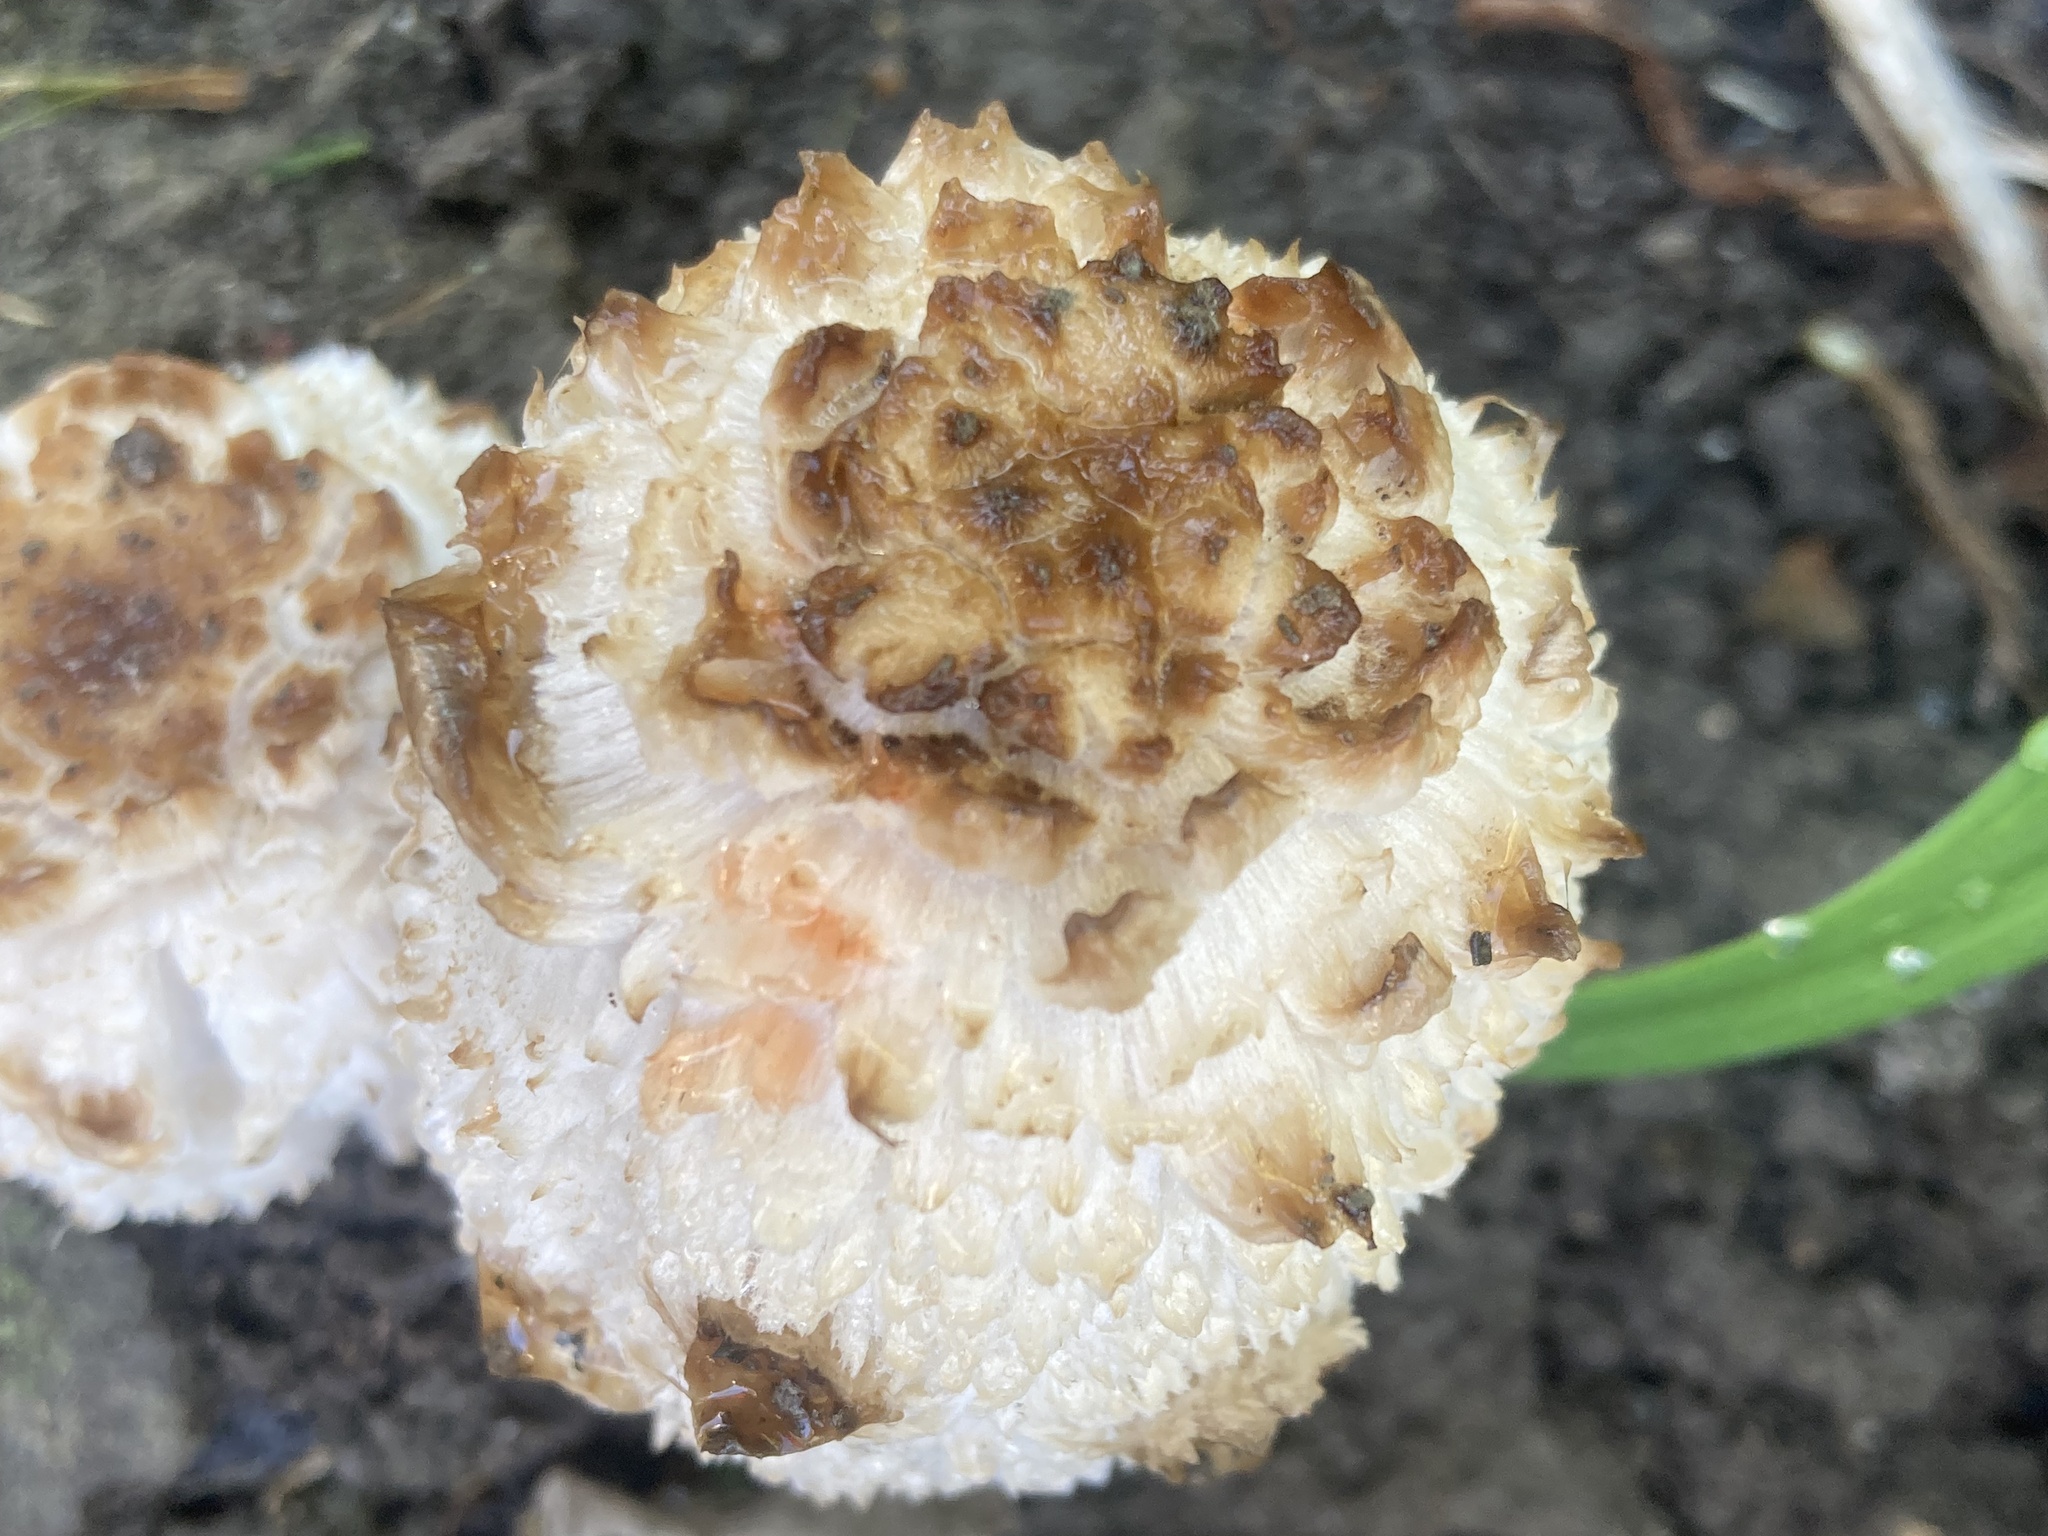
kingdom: Fungi
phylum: Basidiomycota
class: Agaricomycetes
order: Agaricales
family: Agaricaceae
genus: Coprinus
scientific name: Coprinus comatus
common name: Lawyer's wig
